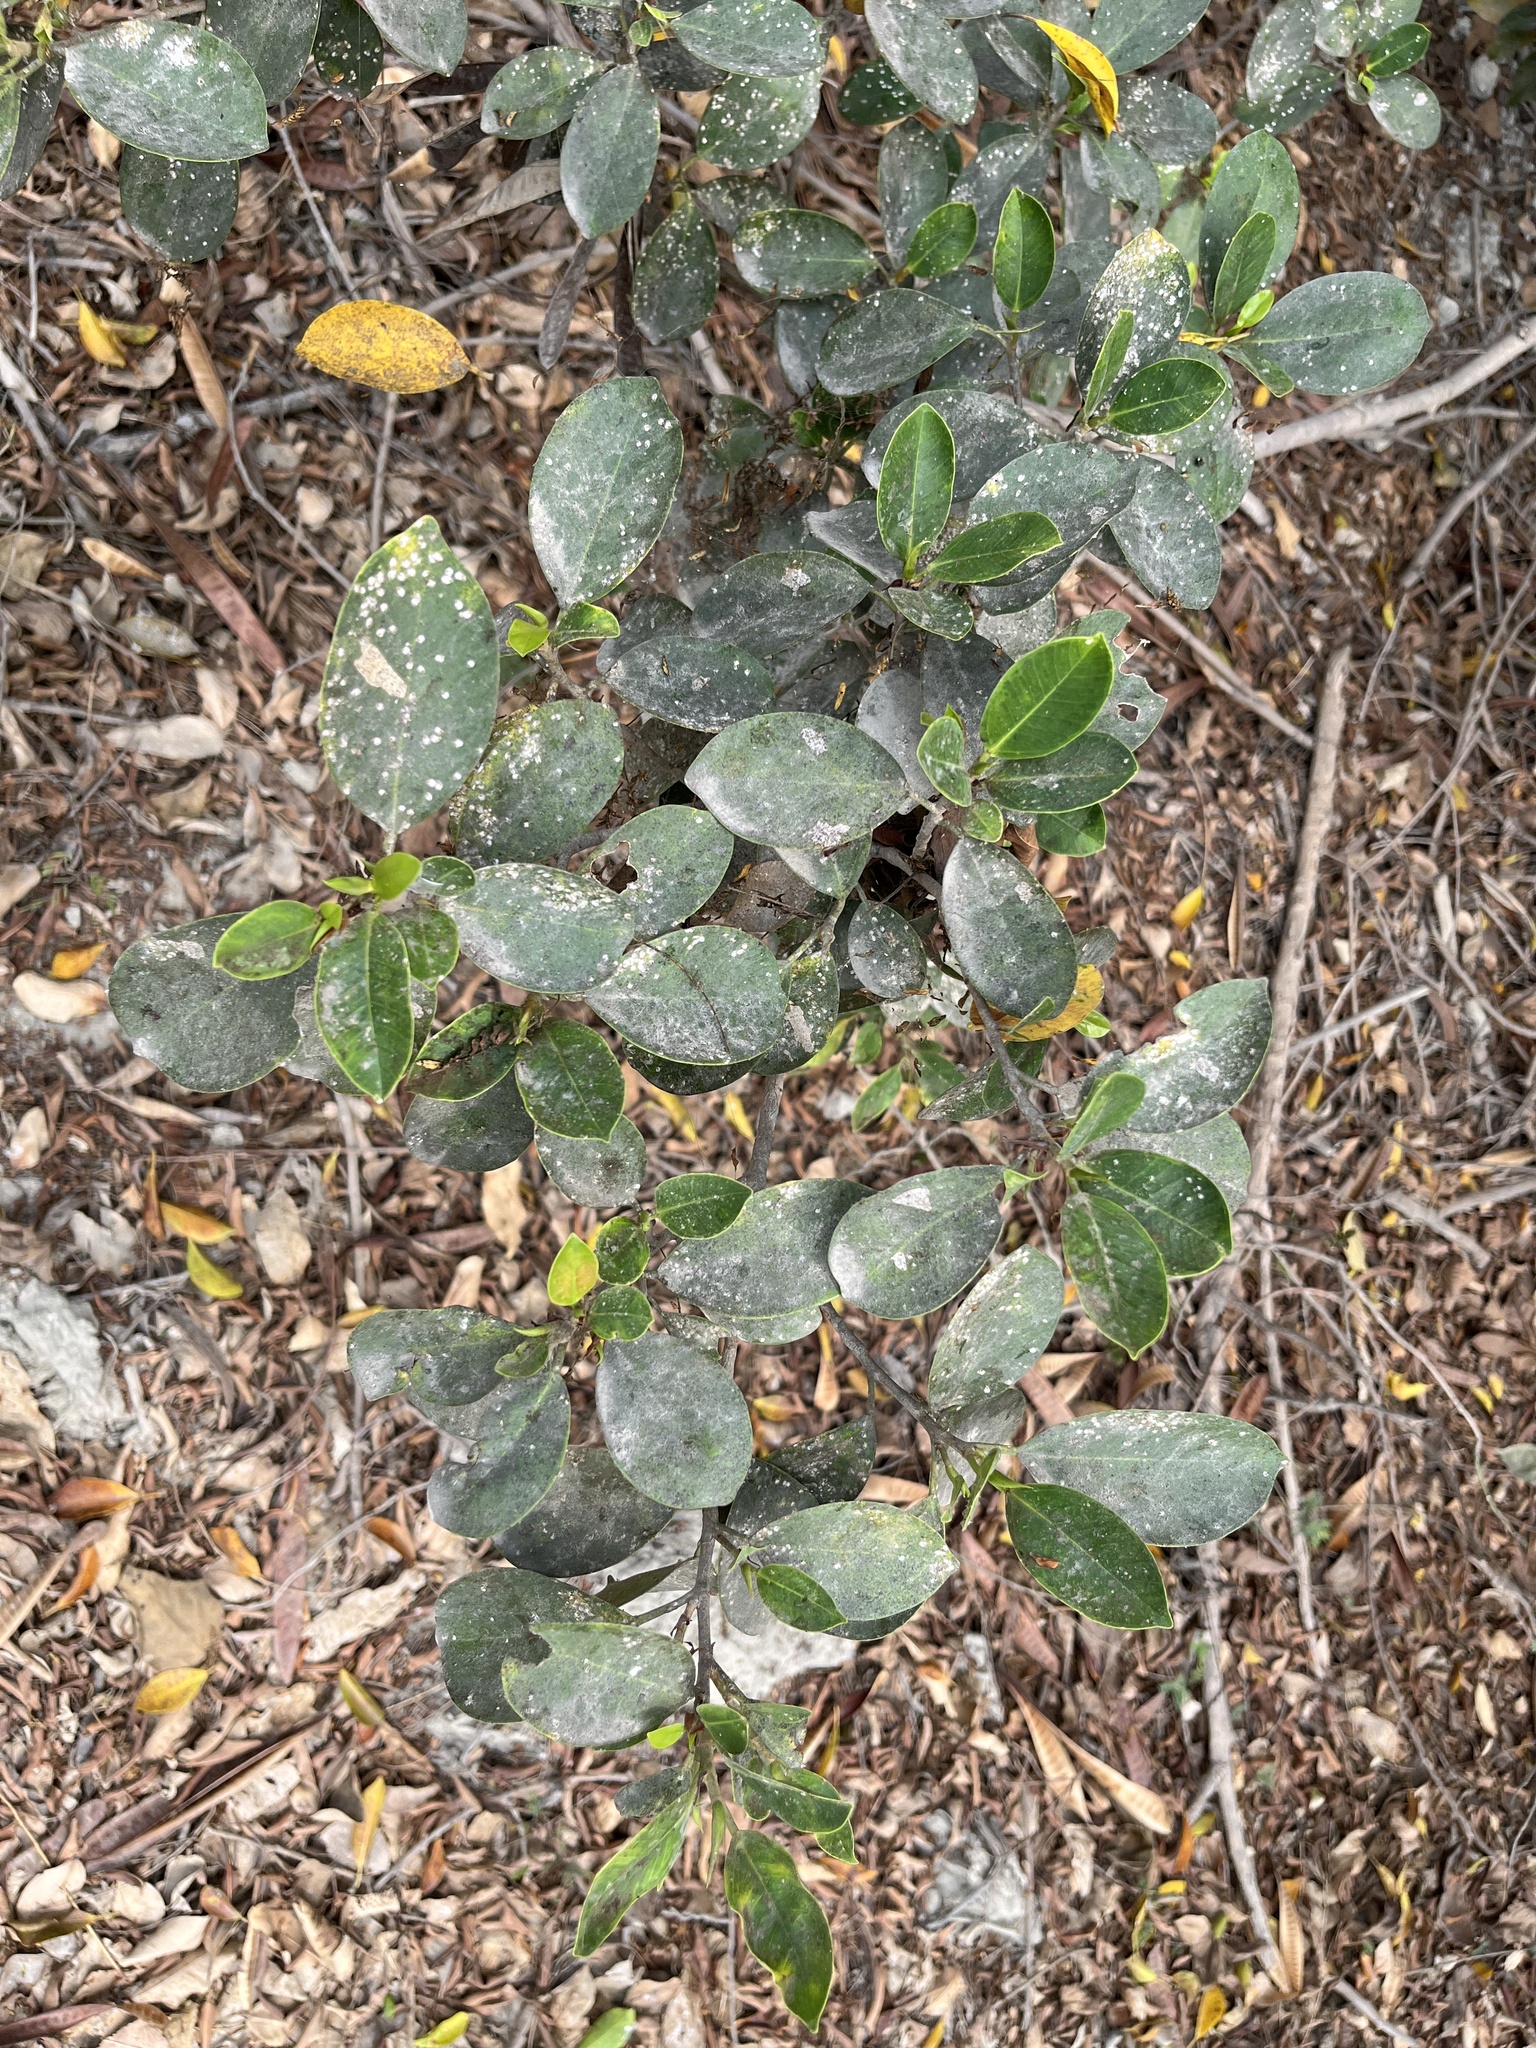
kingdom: Plantae
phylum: Tracheophyta
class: Magnoliopsida
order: Rosales
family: Moraceae
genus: Ficus
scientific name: Ficus microcarpa
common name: Chinese banyan
